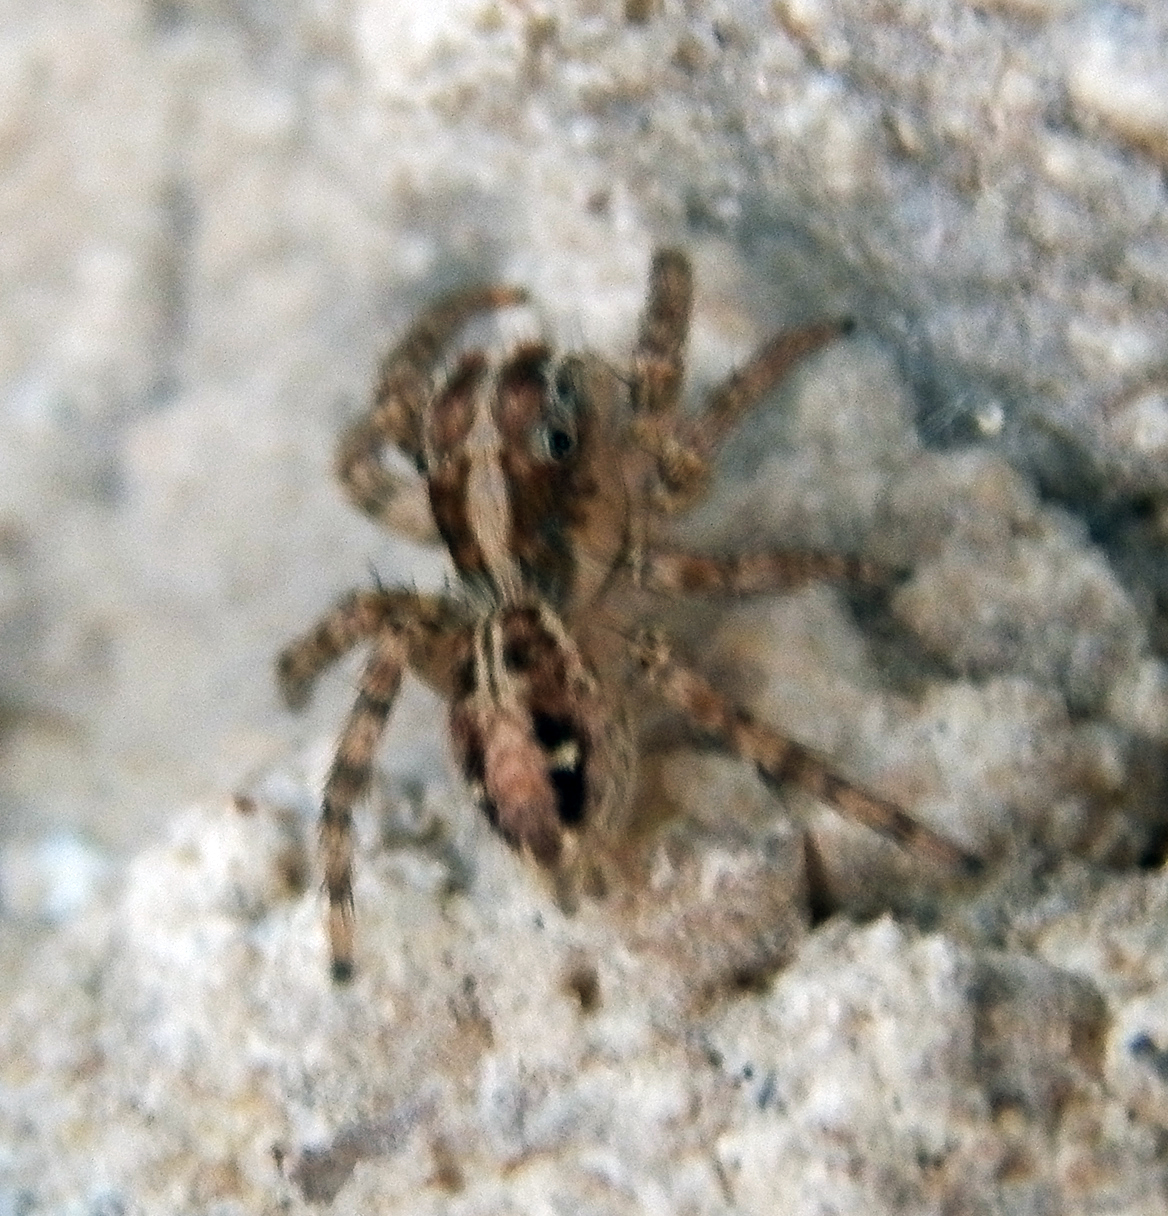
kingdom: Animalia
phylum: Arthropoda
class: Arachnida
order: Araneae
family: Salticidae
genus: Plexippus
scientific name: Plexippus paykulli
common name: Pantropical jumper
